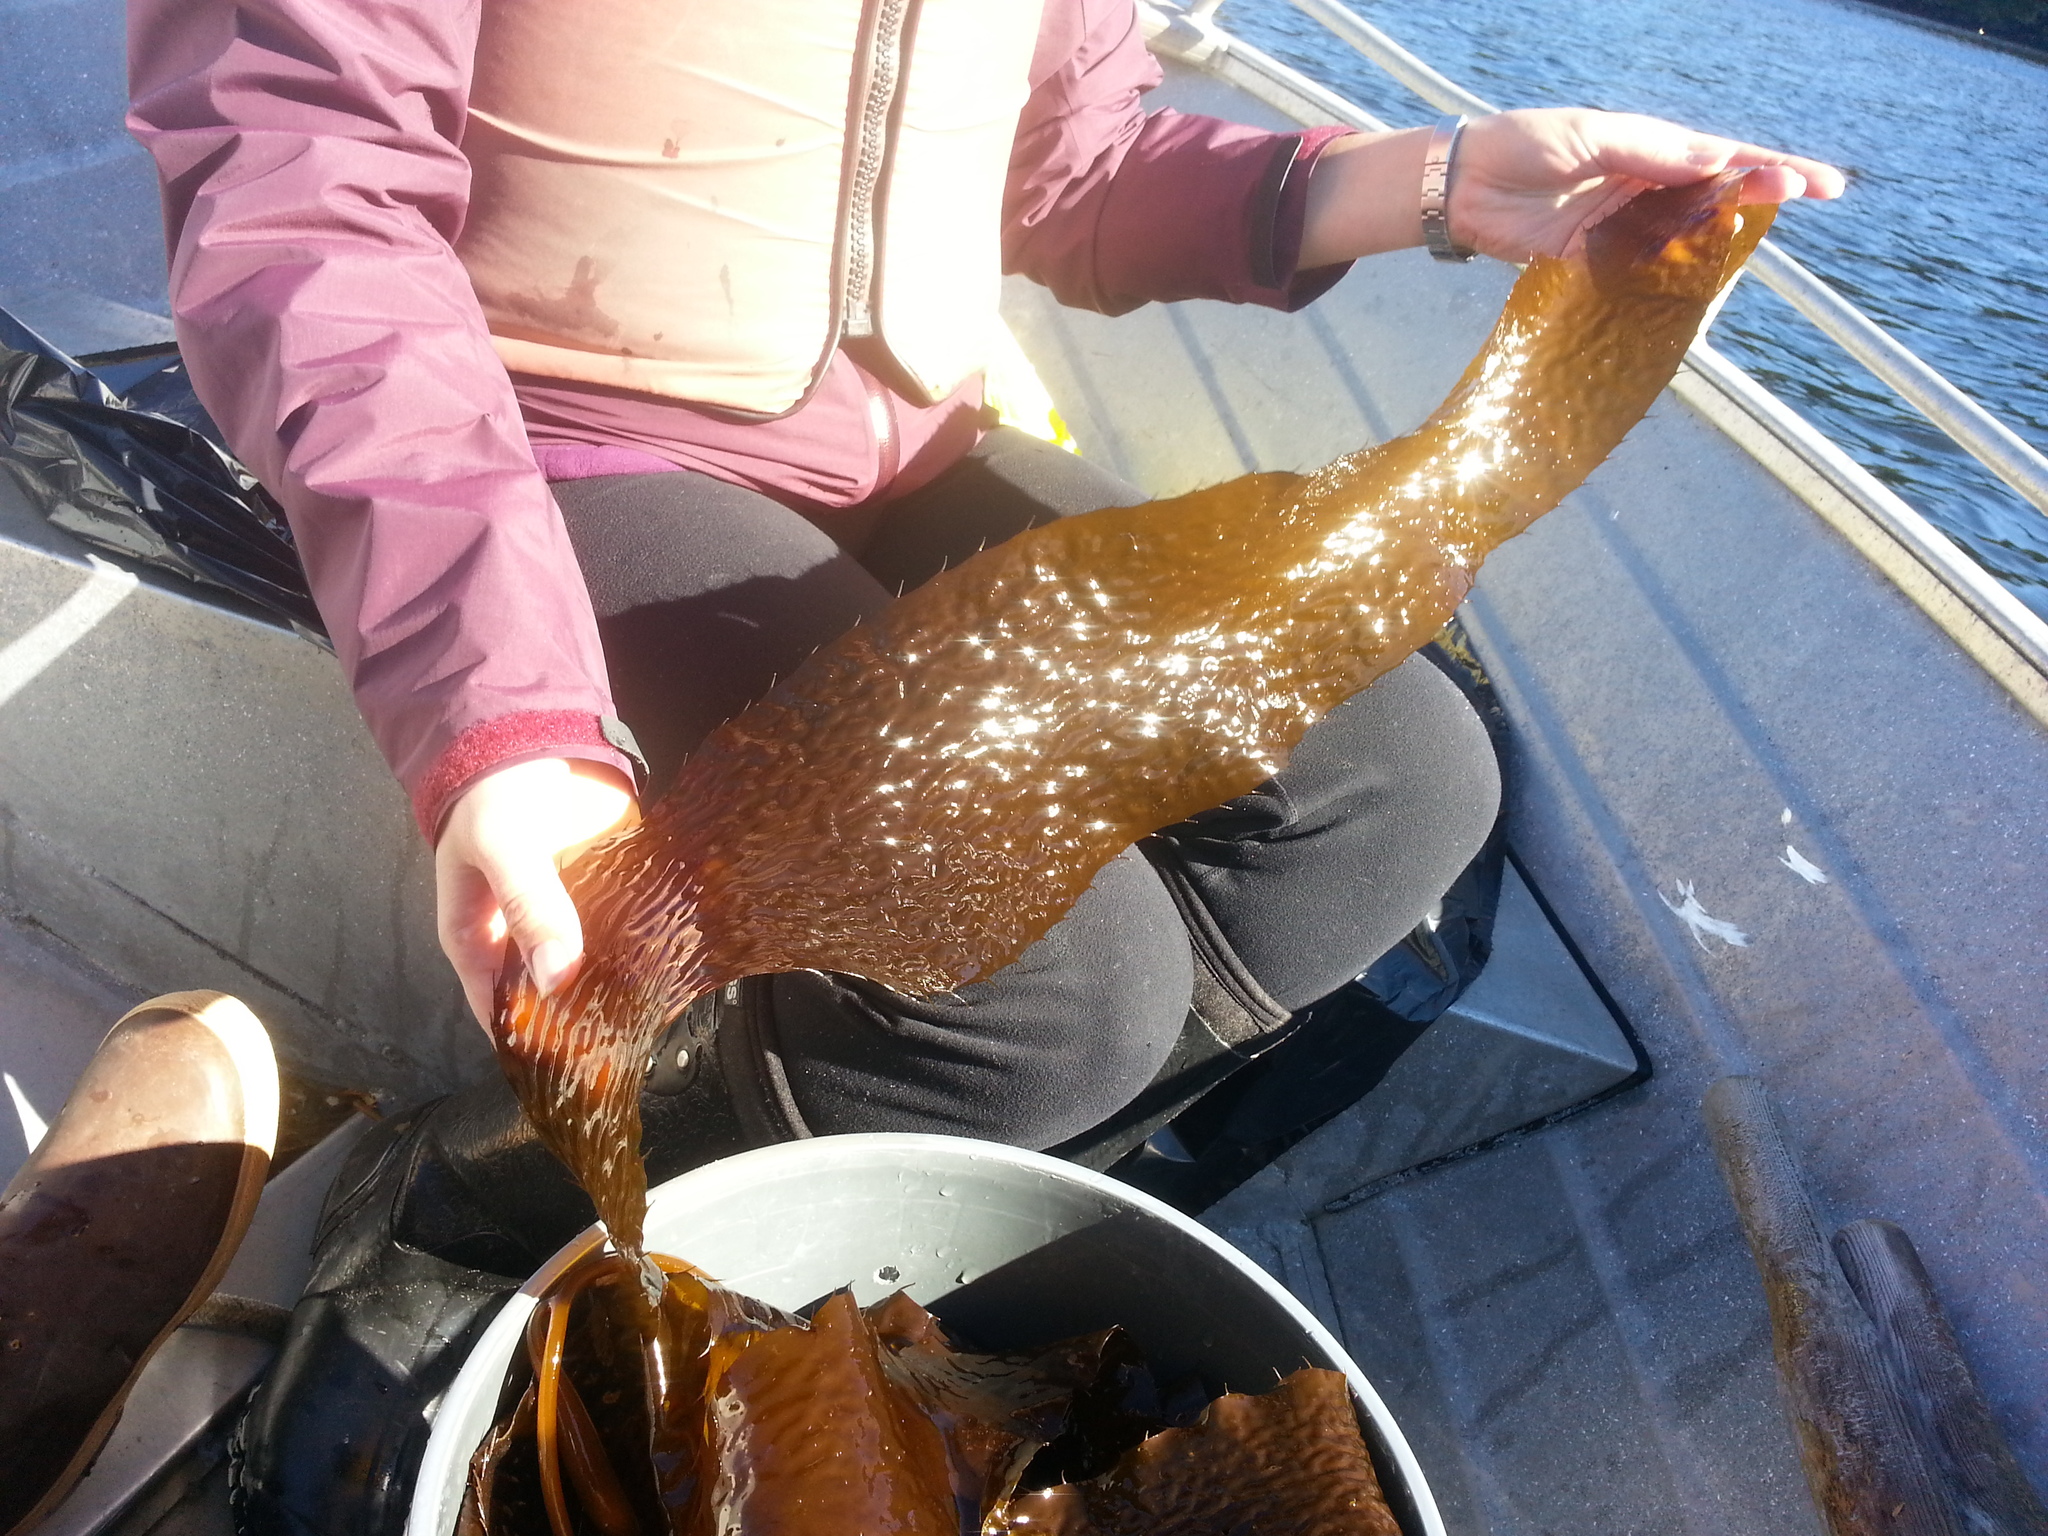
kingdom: Chromista
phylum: Ochrophyta
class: Phaeophyceae
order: Laminariales
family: Laminariaceae
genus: Macrocystis
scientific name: Macrocystis pyrifera
